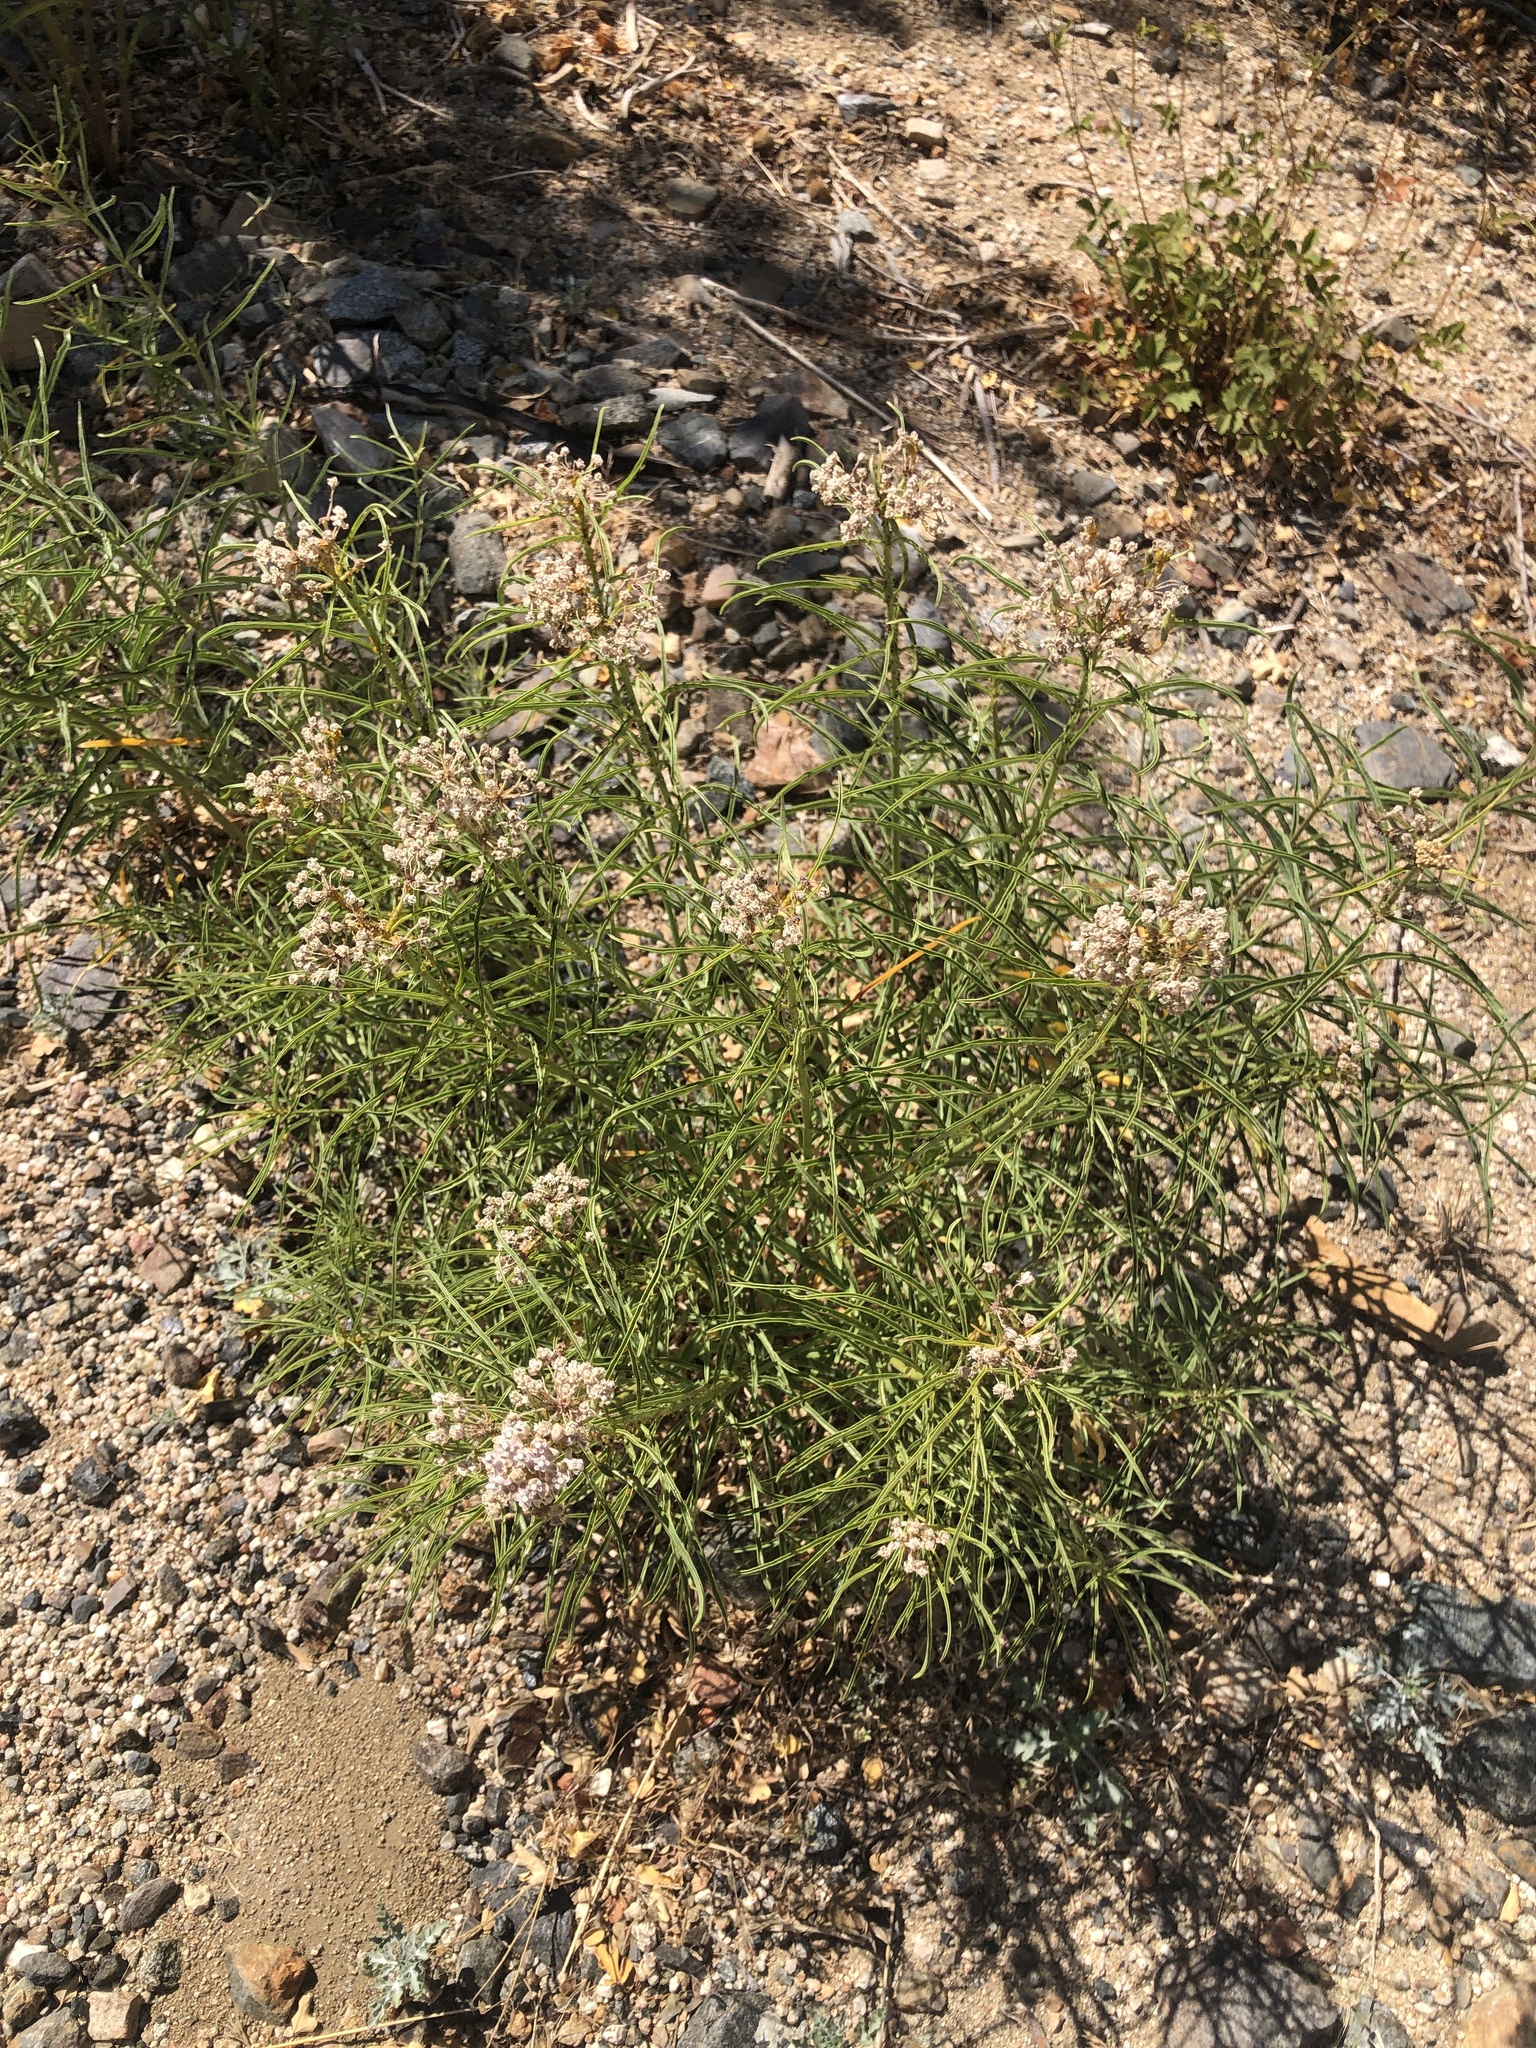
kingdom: Plantae
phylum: Tracheophyta
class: Magnoliopsida
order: Gentianales
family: Apocynaceae
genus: Asclepias
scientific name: Asclepias fascicularis
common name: Mexican milkweed
